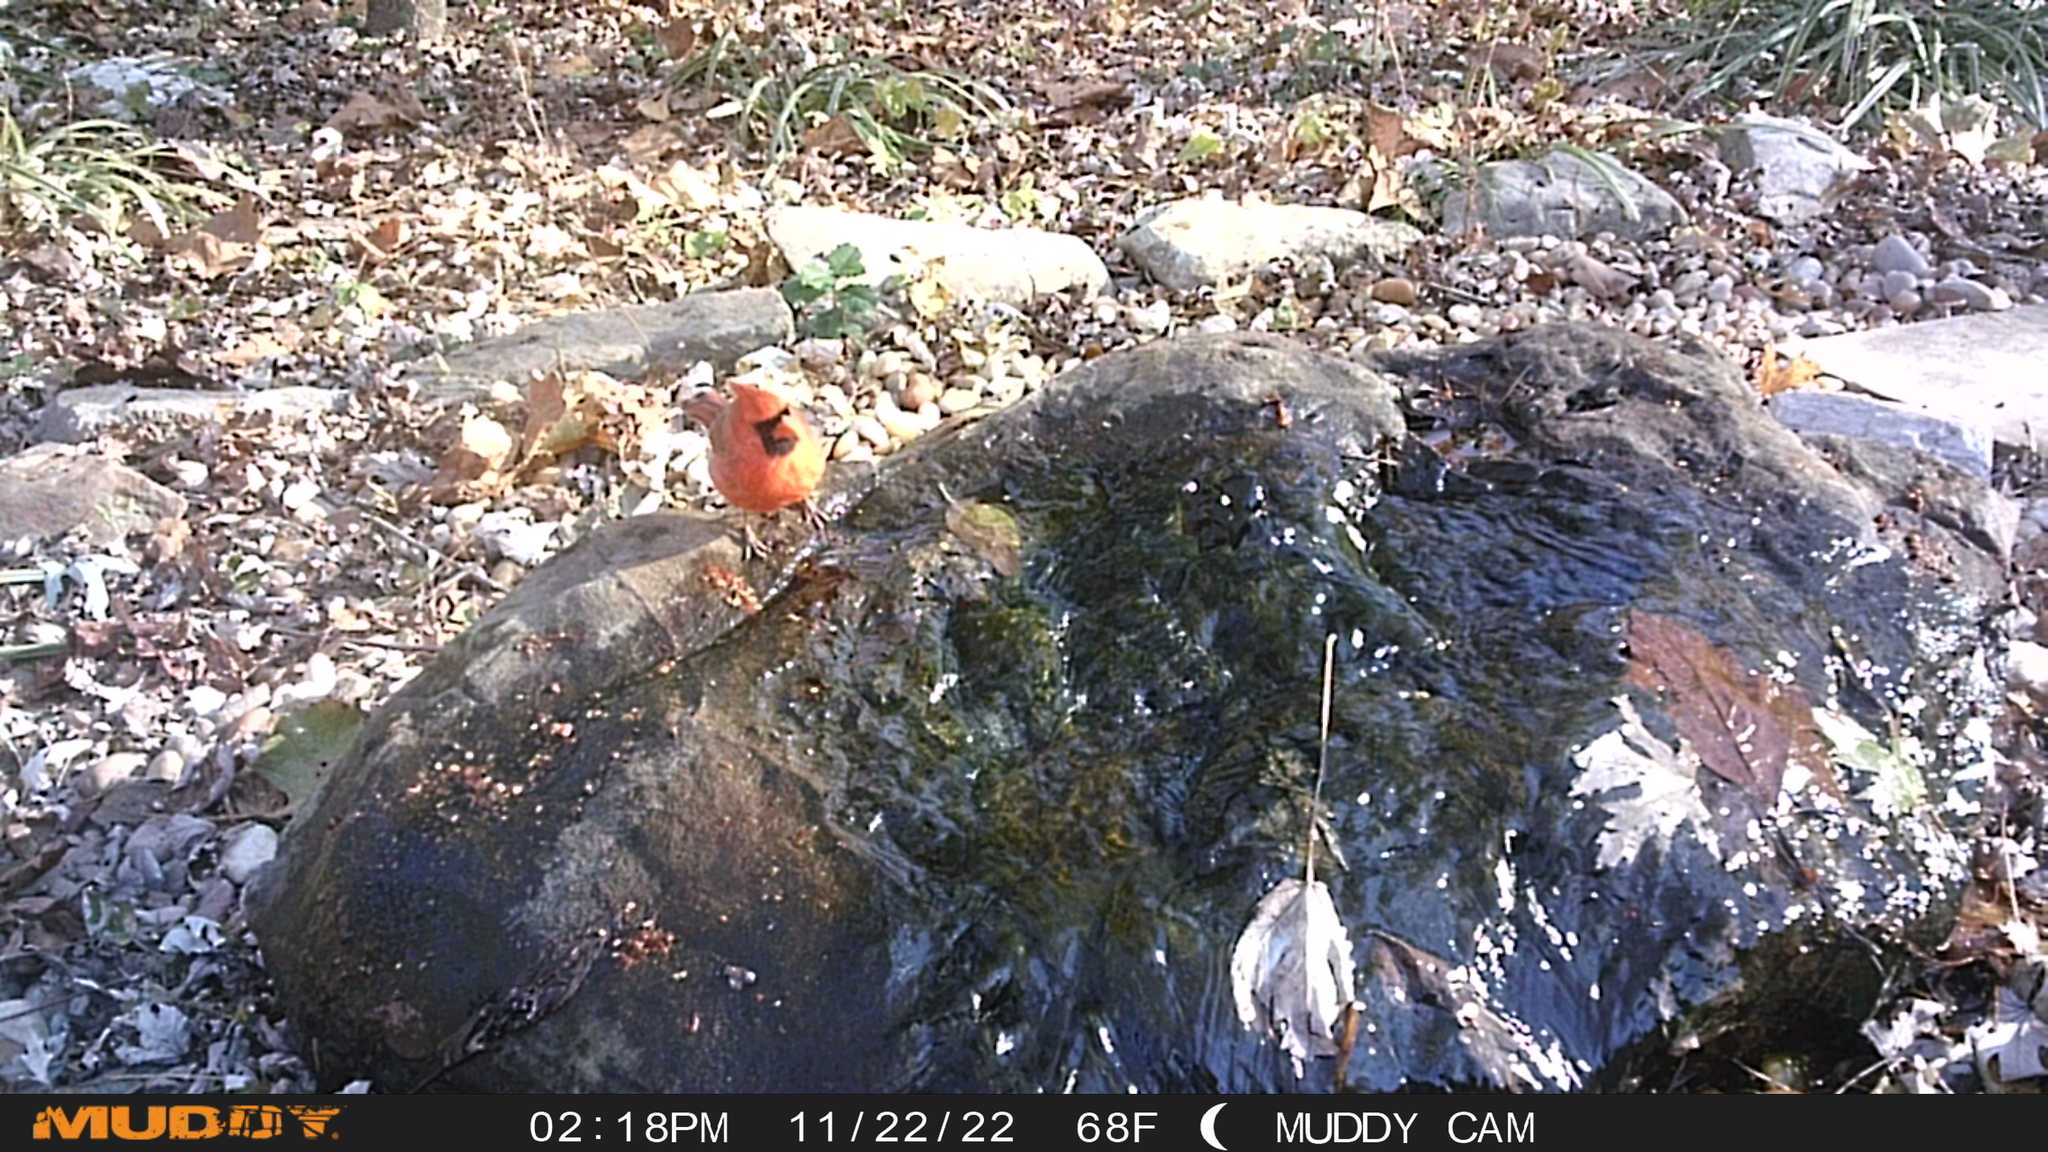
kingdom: Animalia
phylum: Chordata
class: Aves
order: Passeriformes
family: Cardinalidae
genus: Cardinalis
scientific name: Cardinalis cardinalis
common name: Northern cardinal
